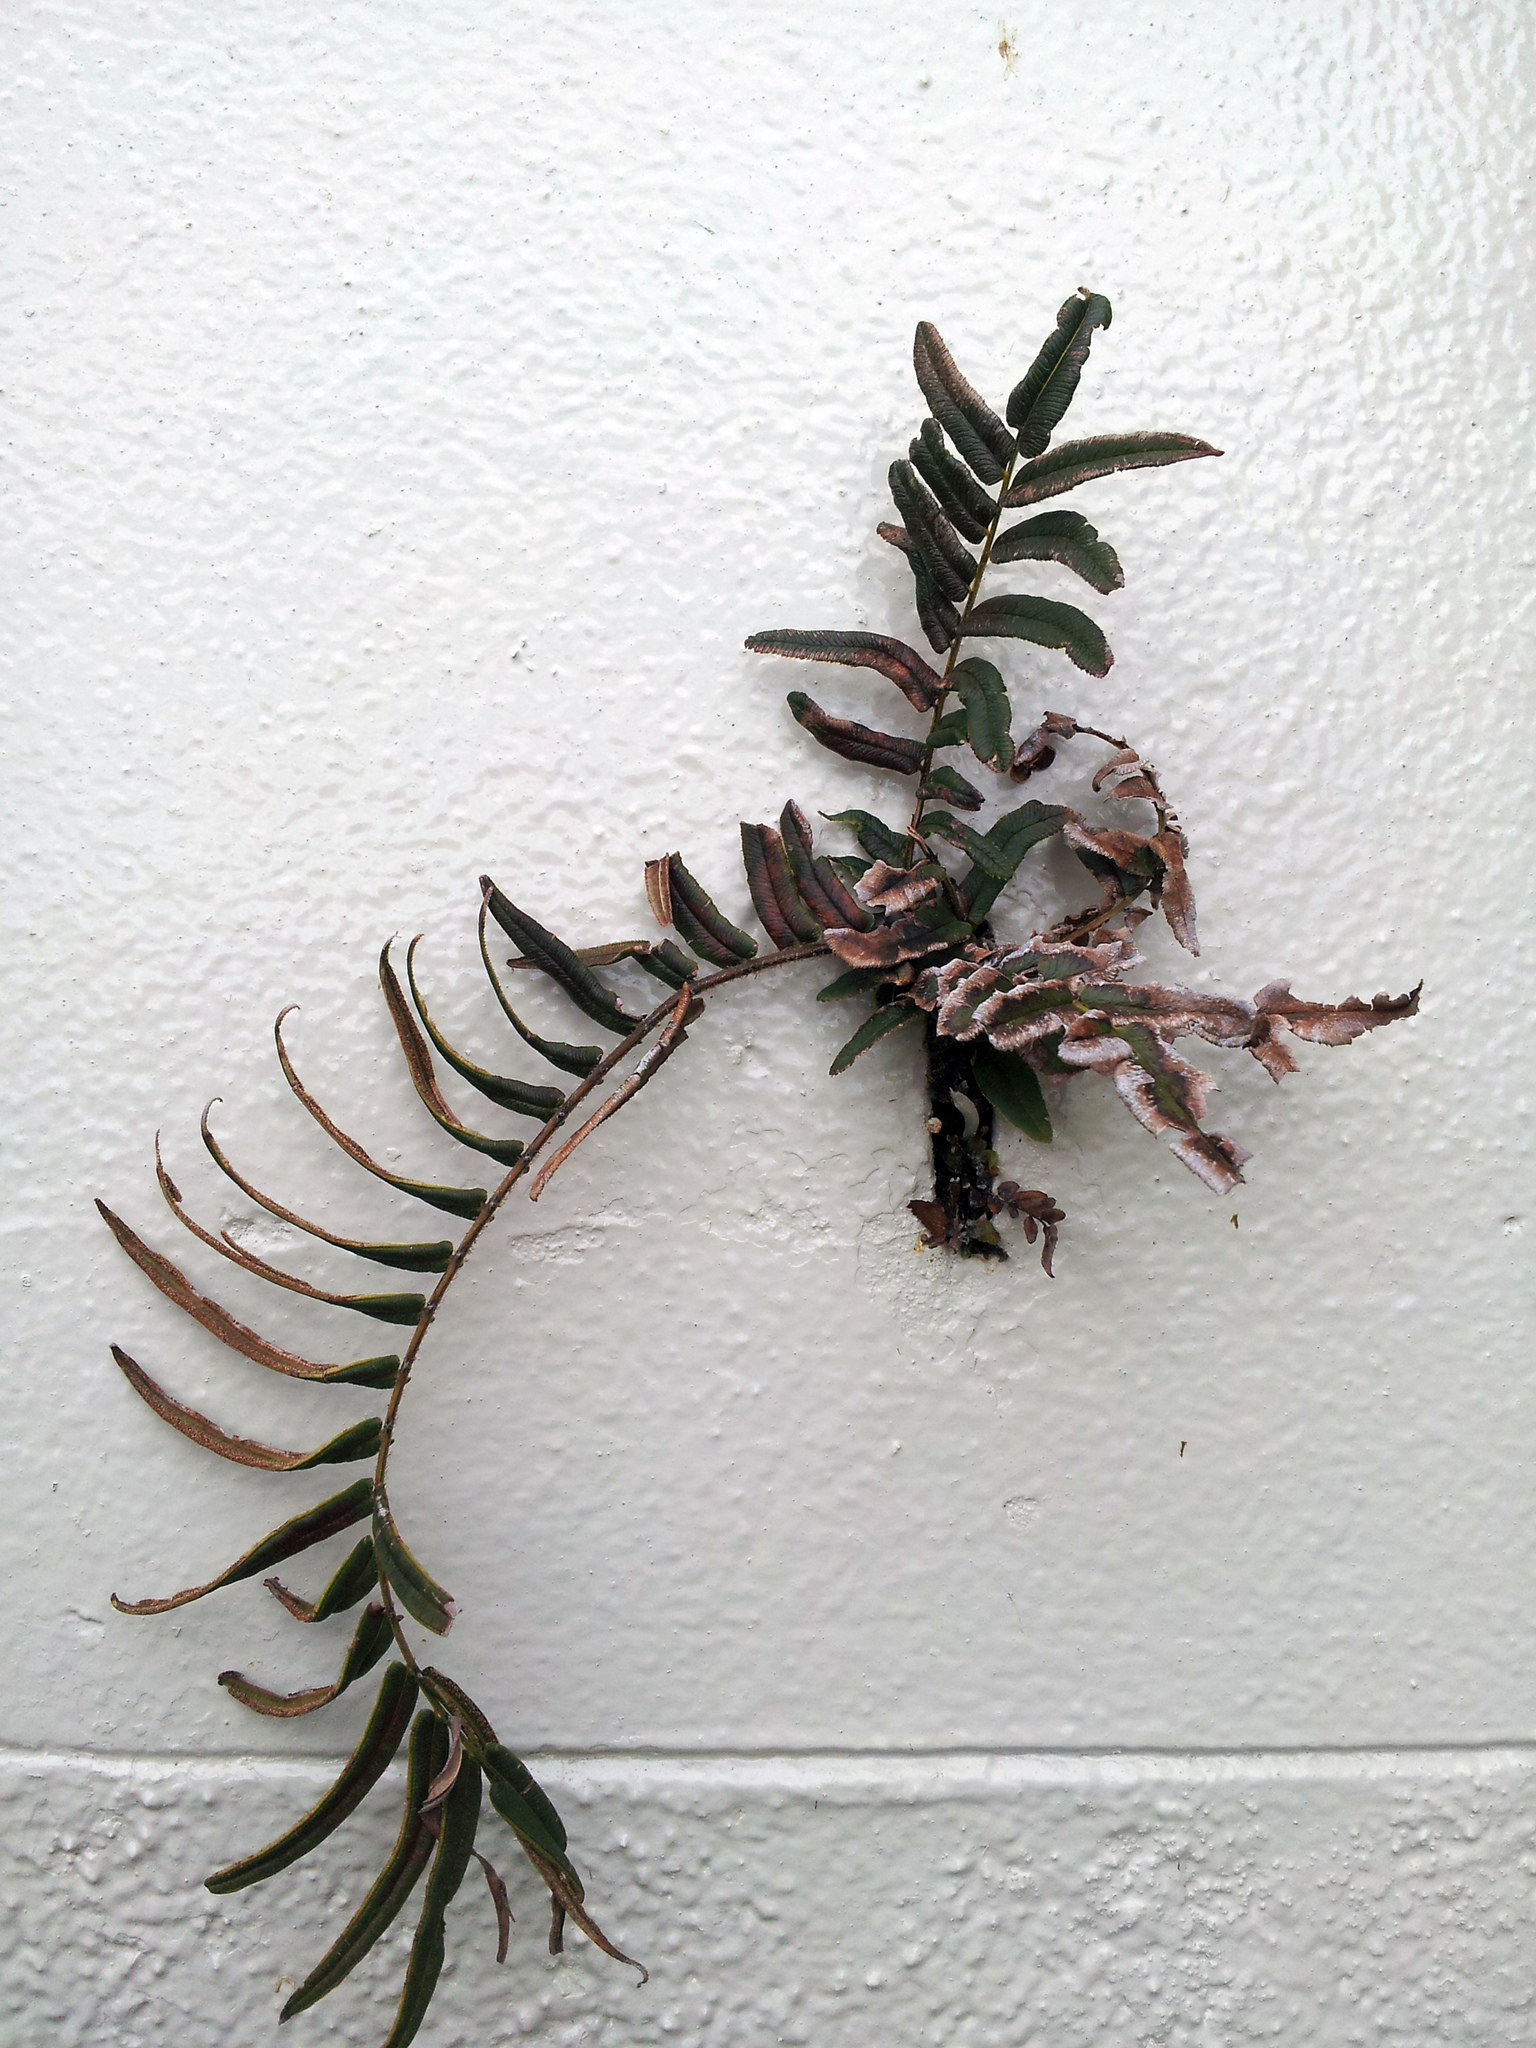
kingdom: Plantae
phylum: Tracheophyta
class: Polypodiopsida
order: Polypodiales
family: Pteridaceae
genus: Pteris
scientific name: Pteris vittata
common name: Ladder brake
